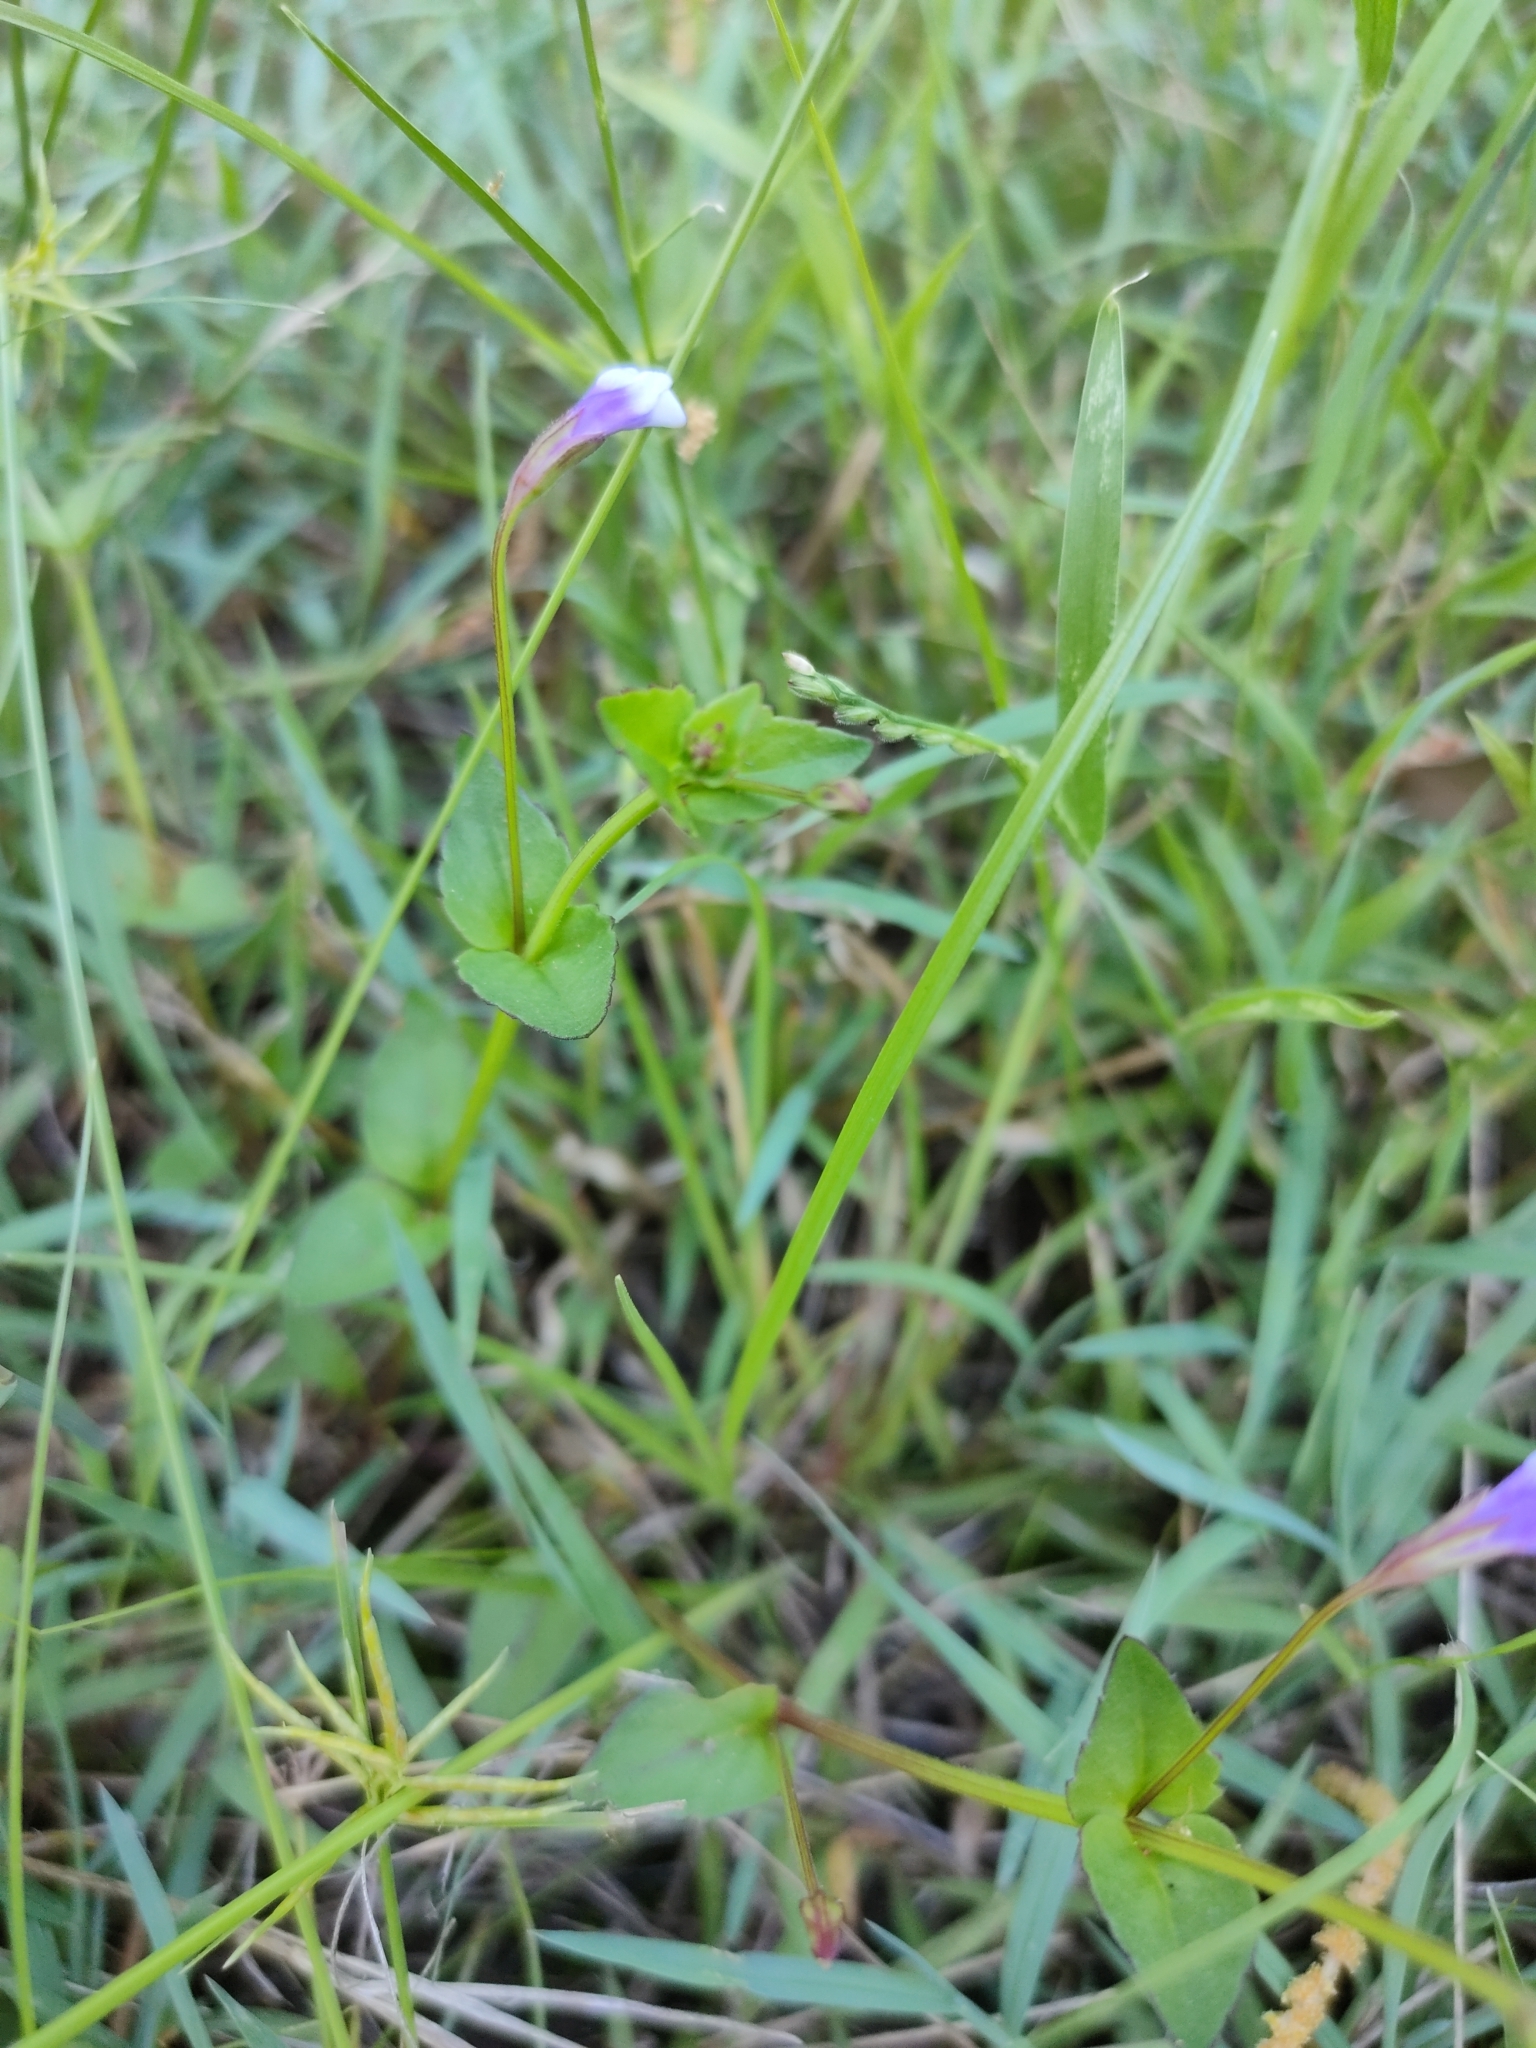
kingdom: Plantae
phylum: Tracheophyta
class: Magnoliopsida
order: Lamiales
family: Linderniaceae
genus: Torenia
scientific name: Torenia crustacea
